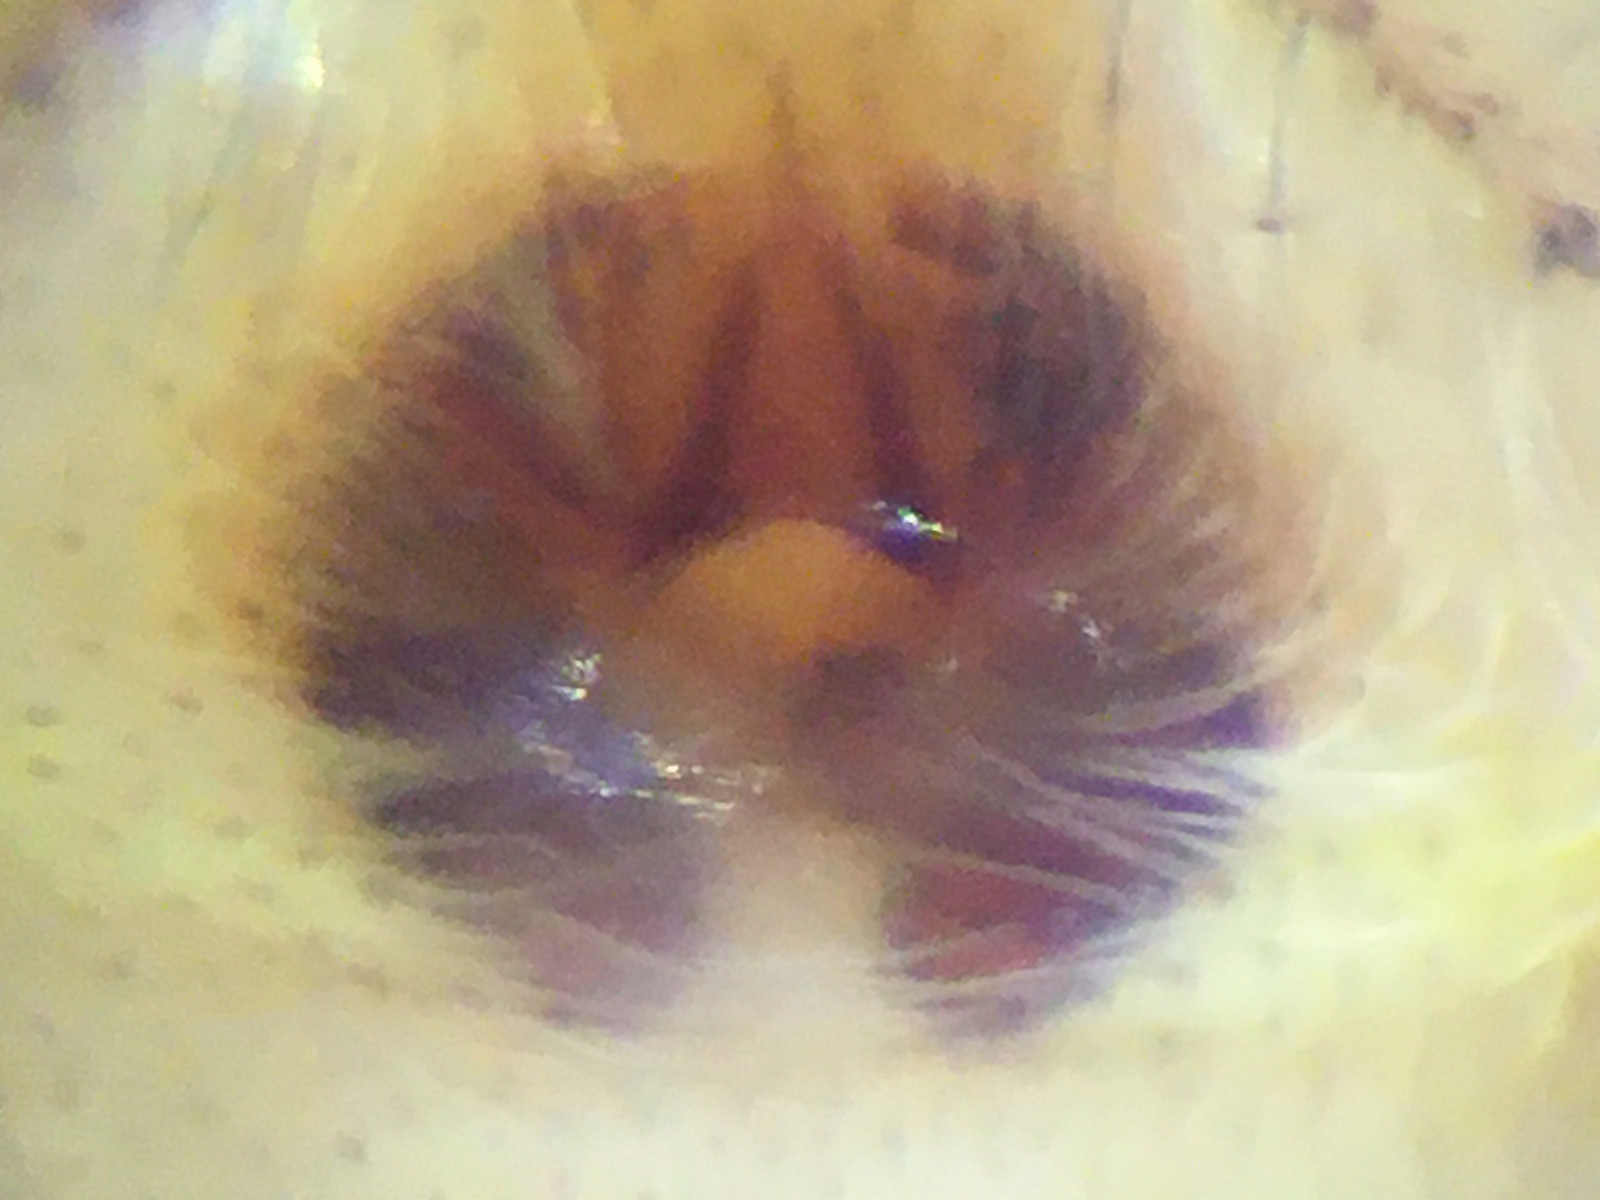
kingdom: Animalia
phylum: Arthropoda
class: Arachnida
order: Araneae
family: Salticidae
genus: Habronattus
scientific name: Habronattus mexicanus
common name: Jumping spiders
